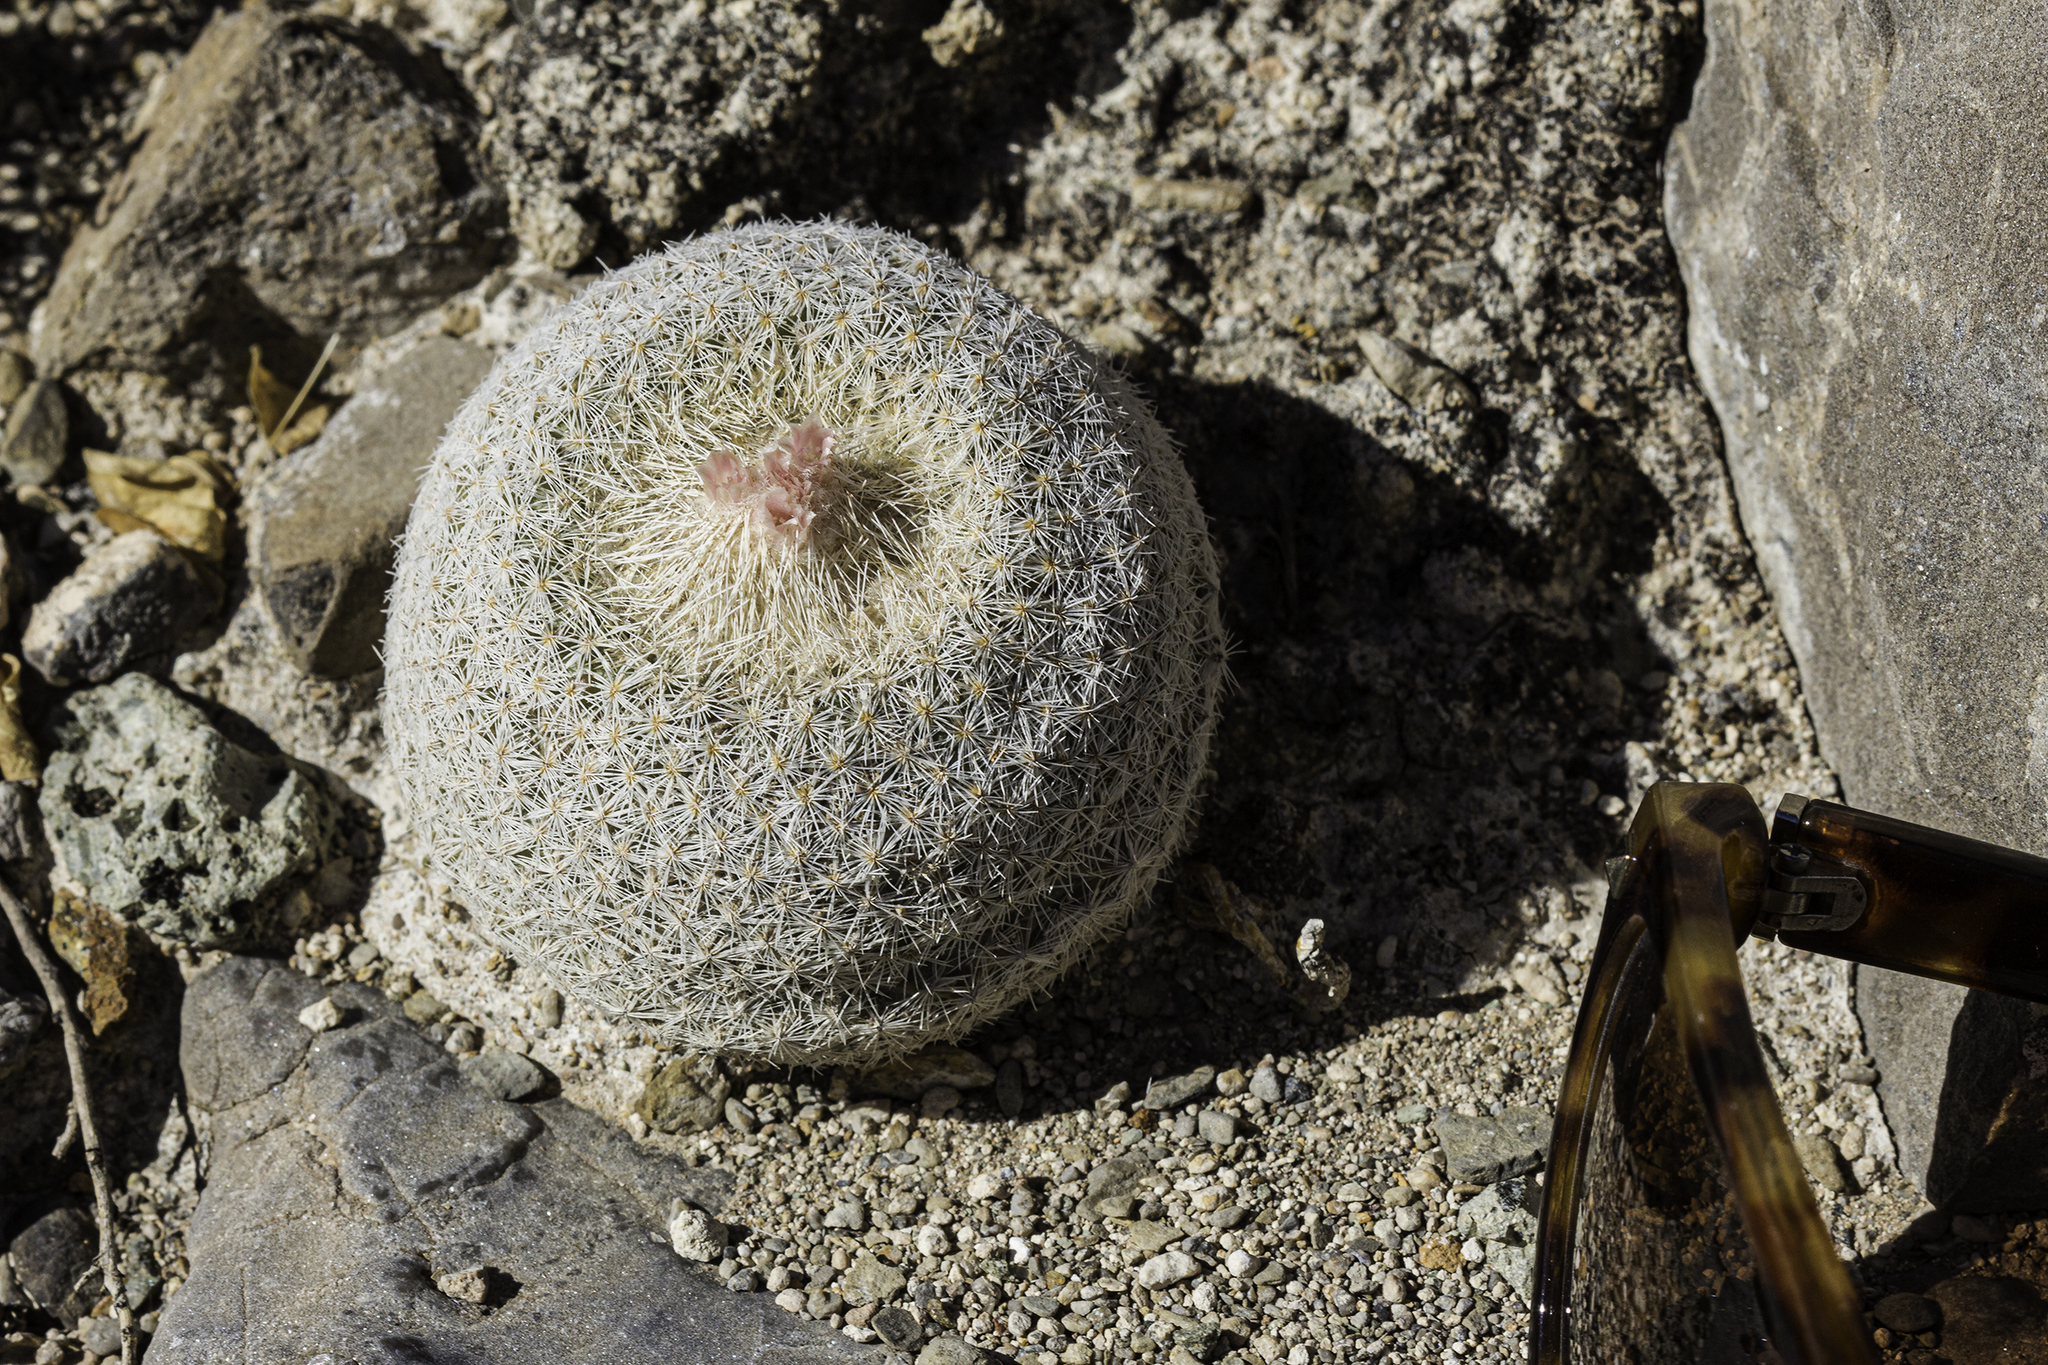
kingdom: Plantae
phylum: Tracheophyta
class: Magnoliopsida
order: Caryophyllales
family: Cactaceae
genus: Epithelantha
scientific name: Epithelantha micromeris
